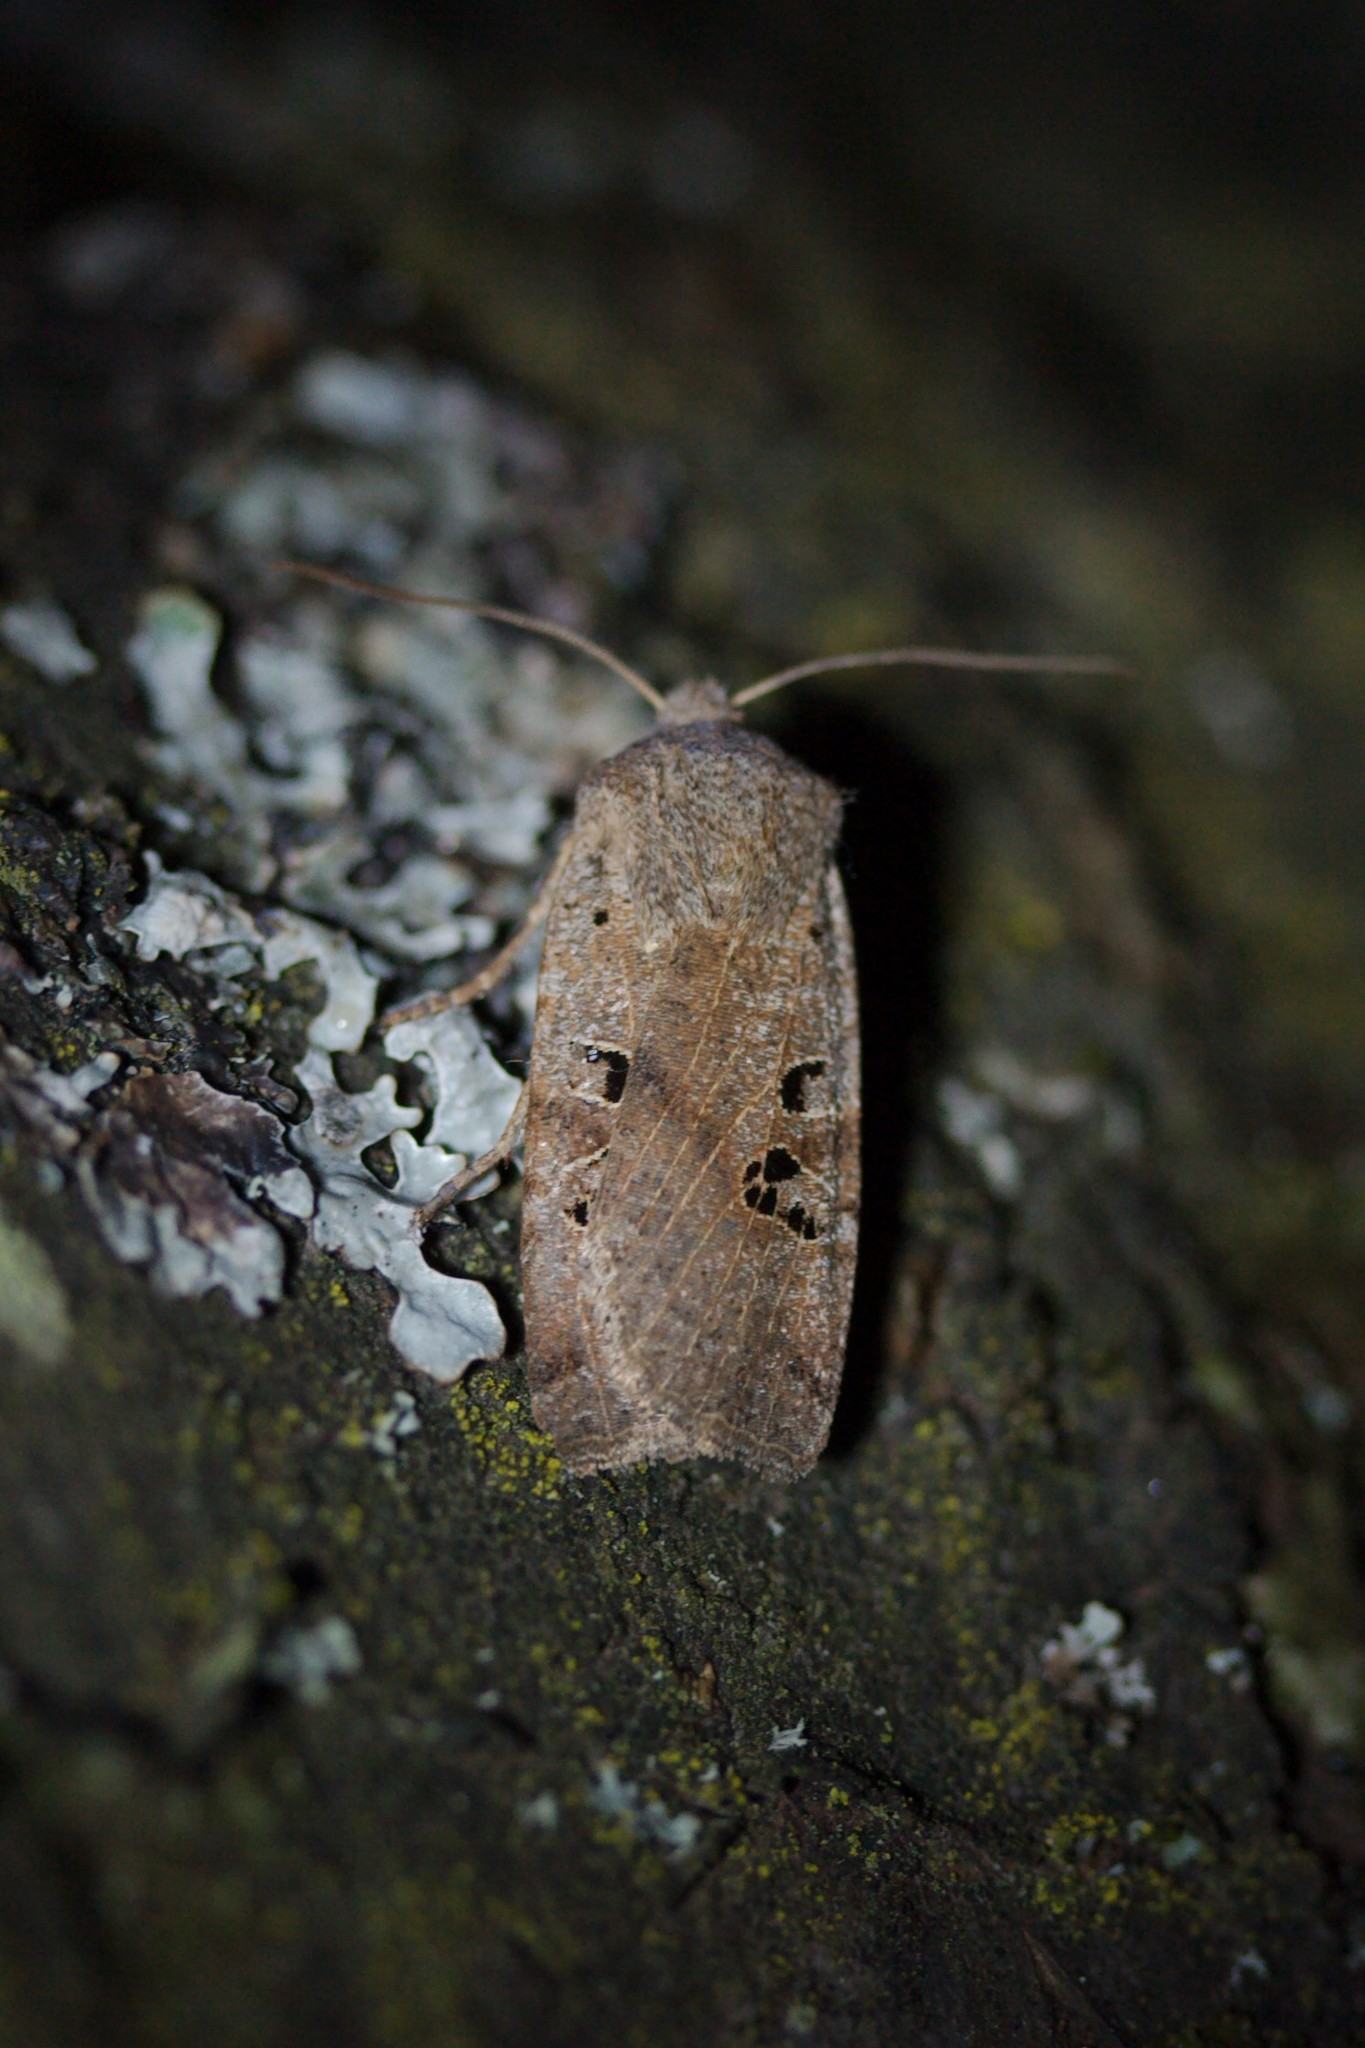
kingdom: Animalia
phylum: Arthropoda
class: Insecta
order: Lepidoptera
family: Noctuidae
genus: Conistra
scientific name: Conistra rubiginosa
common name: Black-spotted chestnut
